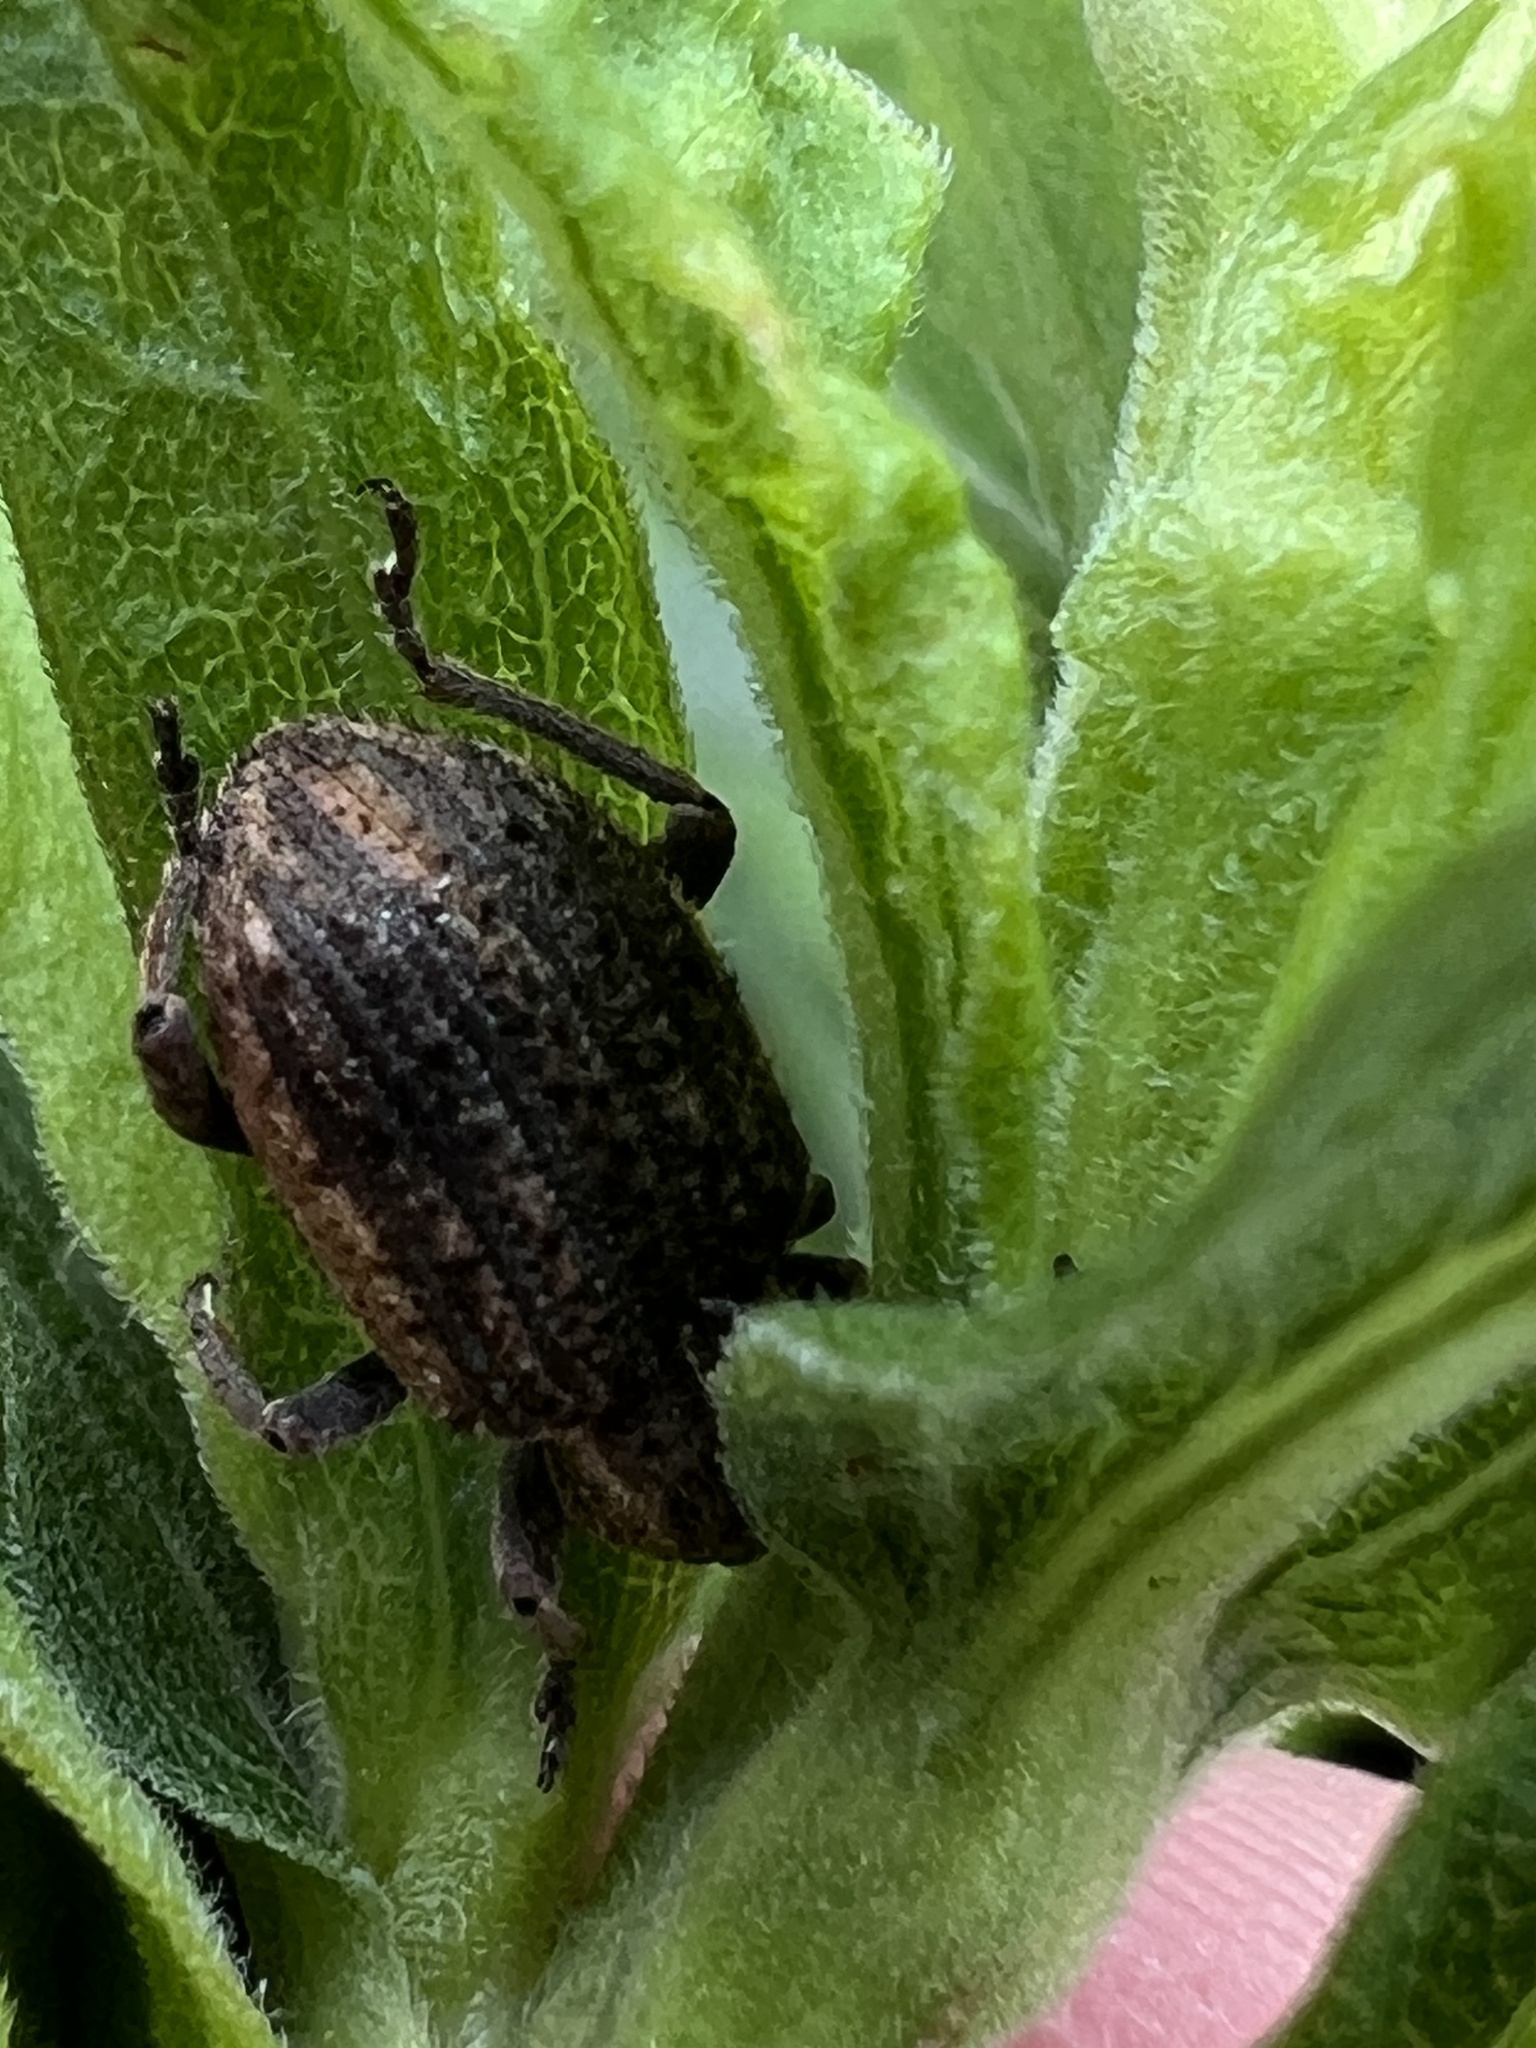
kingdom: Animalia
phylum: Arthropoda
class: Insecta
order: Coleoptera
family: Curculionidae
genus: Brachypera
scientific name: Brachypera zoilus
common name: Clover leaf weevil
